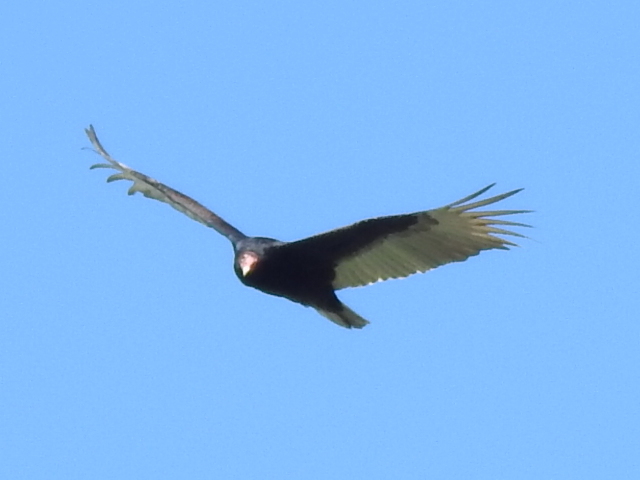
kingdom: Animalia
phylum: Chordata
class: Aves
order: Accipitriformes
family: Cathartidae
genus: Cathartes
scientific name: Cathartes aura
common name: Turkey vulture
